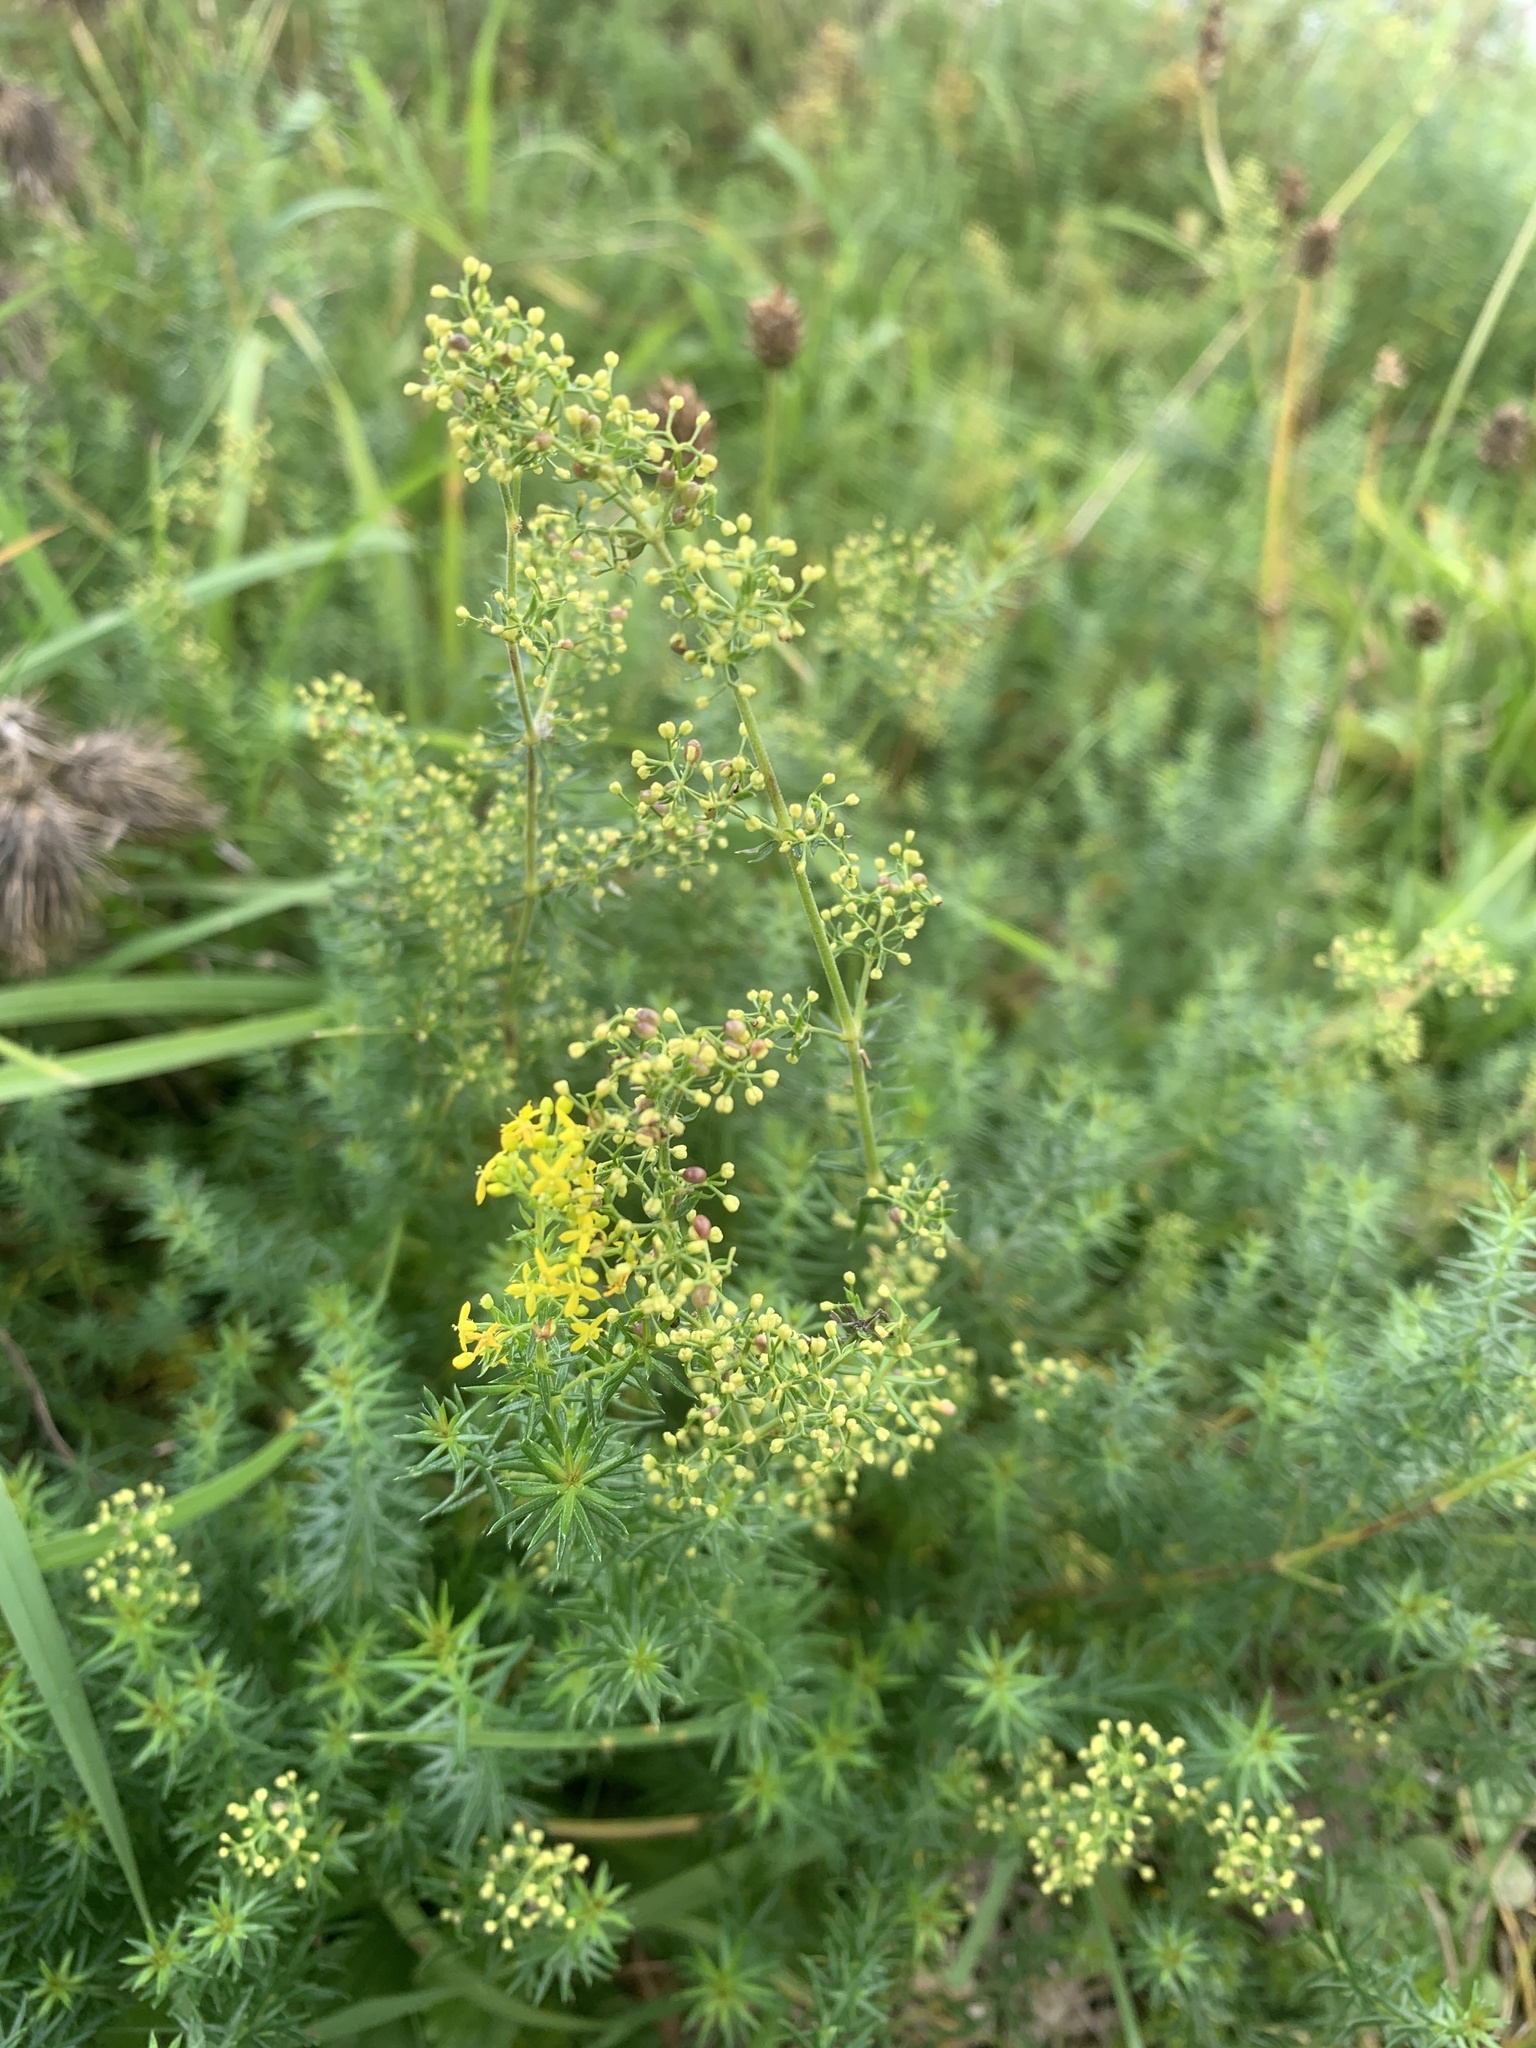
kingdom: Plantae
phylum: Tracheophyta
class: Magnoliopsida
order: Gentianales
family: Rubiaceae
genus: Galium
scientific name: Galium verum
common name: Lady's bedstraw
